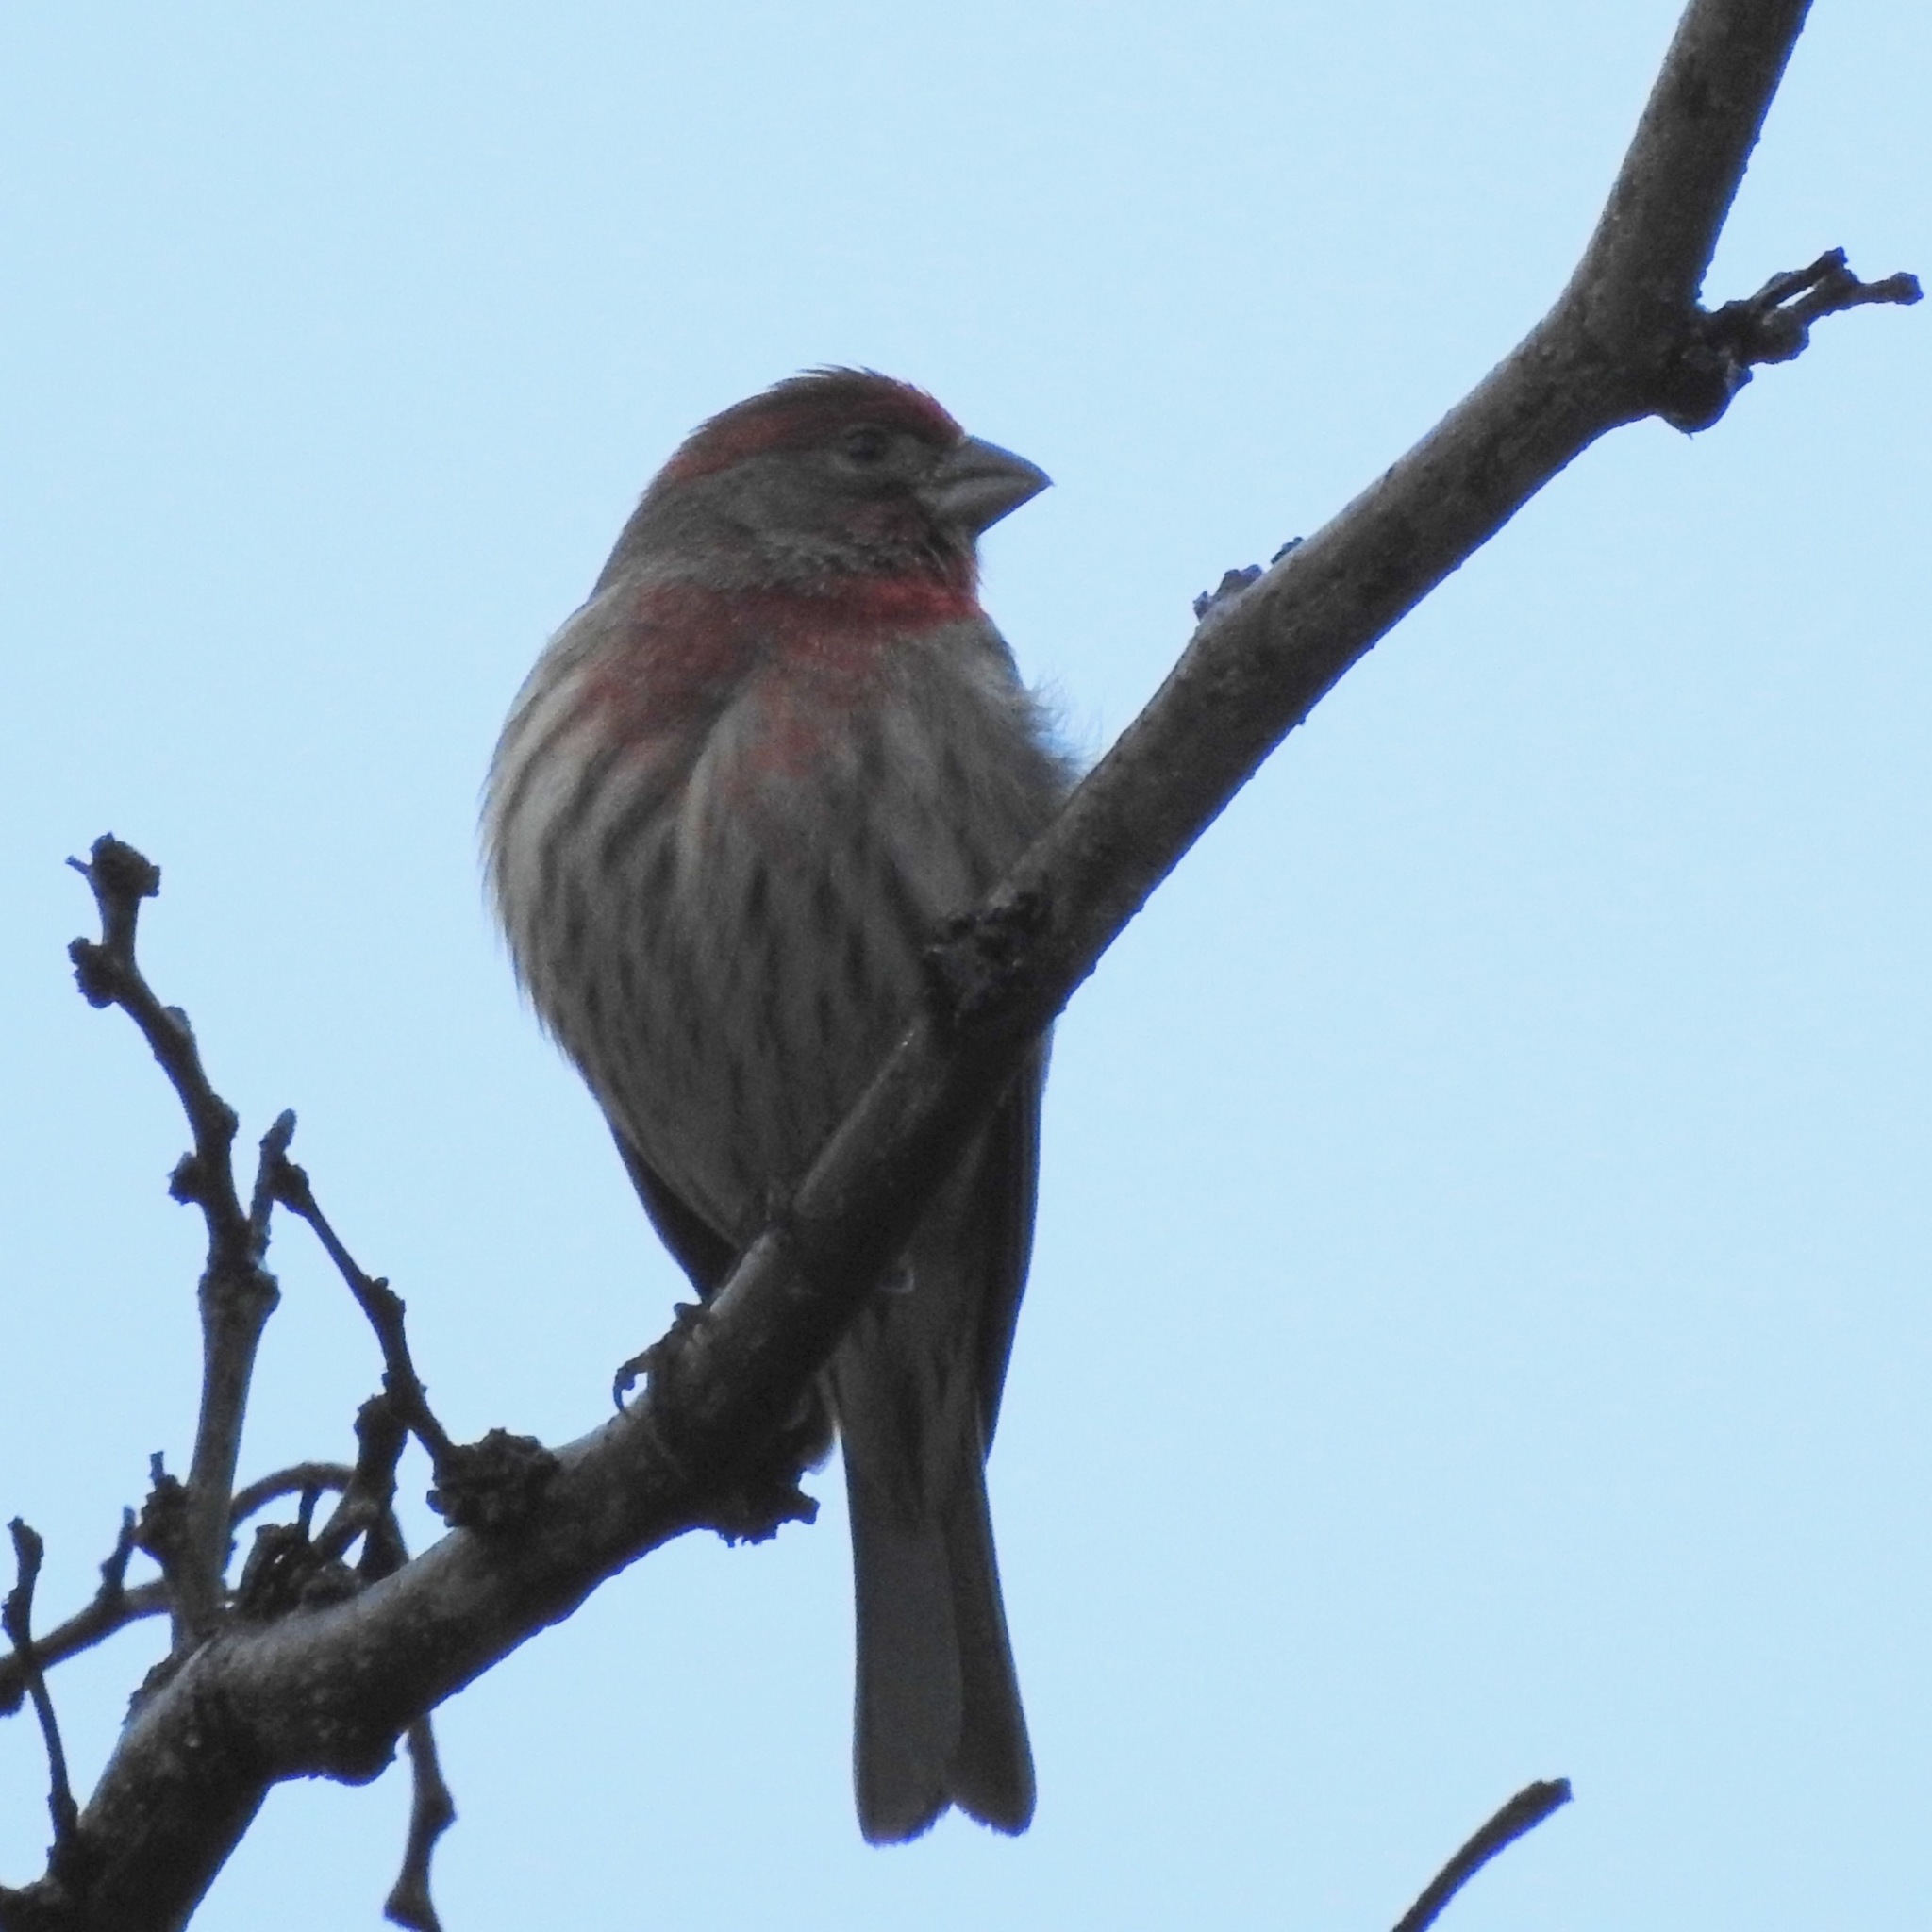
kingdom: Animalia
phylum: Chordata
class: Aves
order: Passeriformes
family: Fringillidae
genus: Haemorhous
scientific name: Haemorhous mexicanus
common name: House finch
